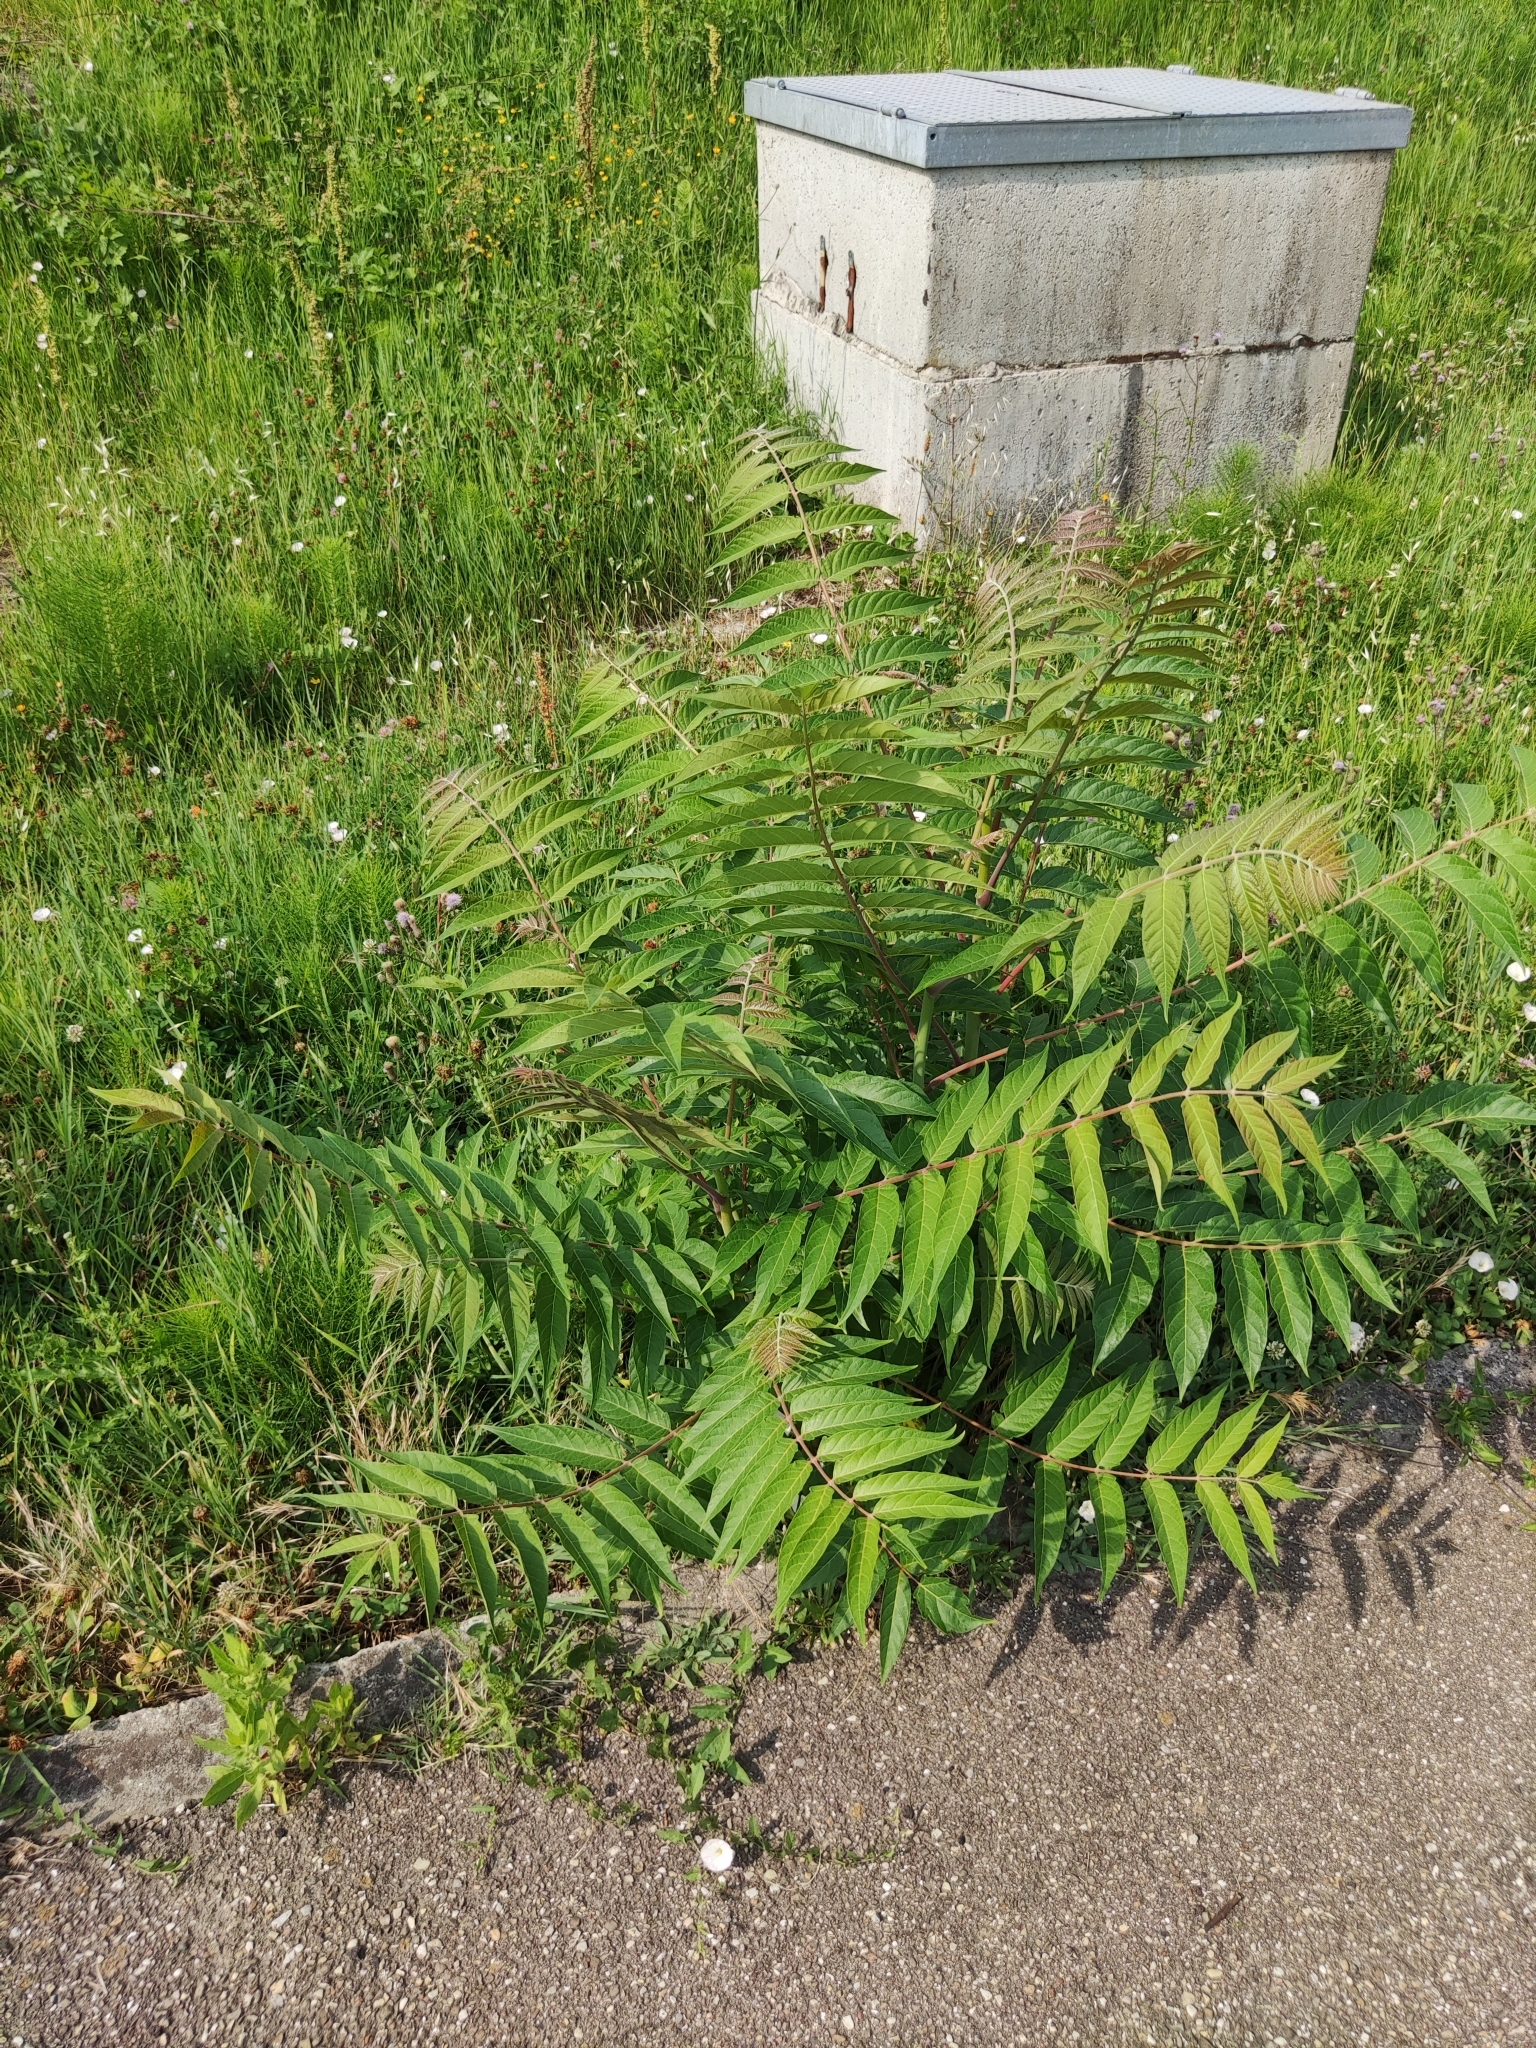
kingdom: Plantae
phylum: Tracheophyta
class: Magnoliopsida
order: Sapindales
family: Simaroubaceae
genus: Ailanthus
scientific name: Ailanthus altissima
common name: Tree-of-heaven
